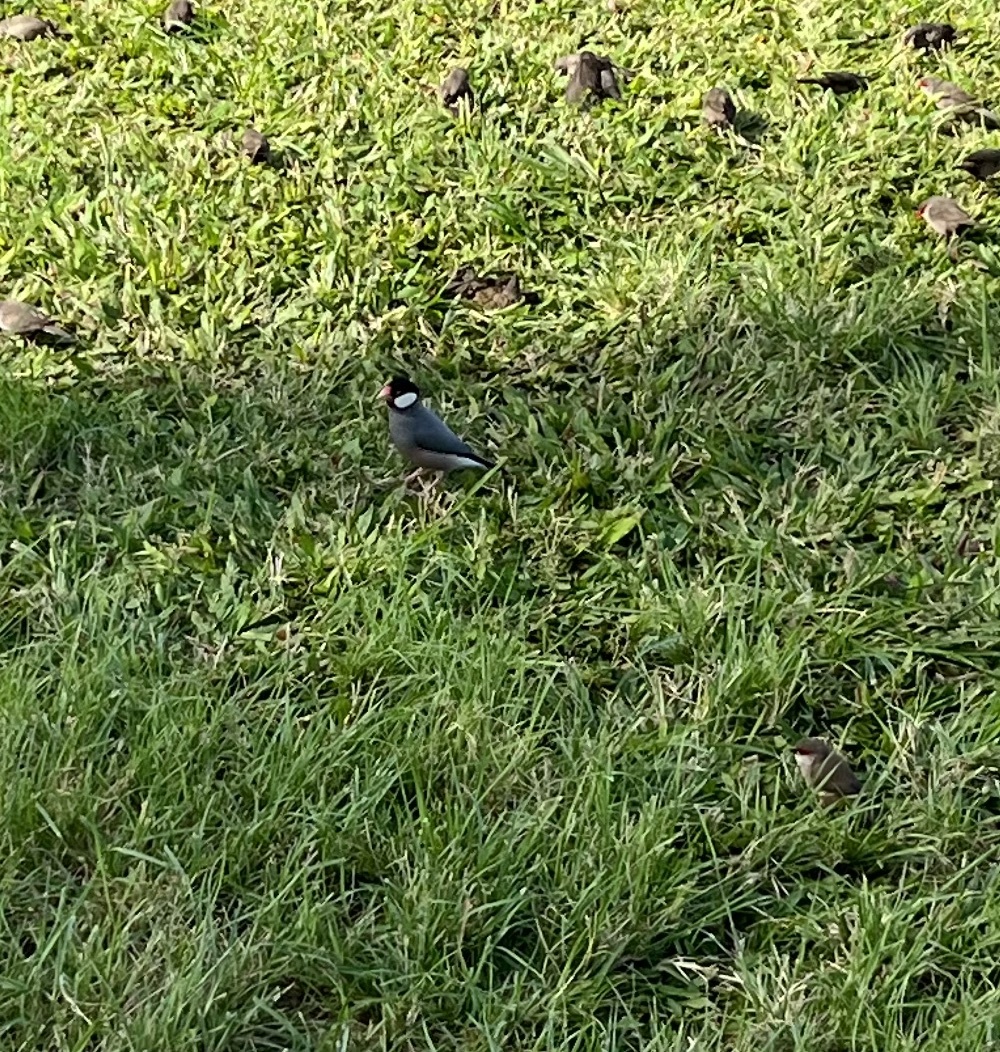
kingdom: Animalia
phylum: Chordata
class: Aves
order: Passeriformes
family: Estrildidae
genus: Lonchura
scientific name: Lonchura oryzivora
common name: Java sparrow
